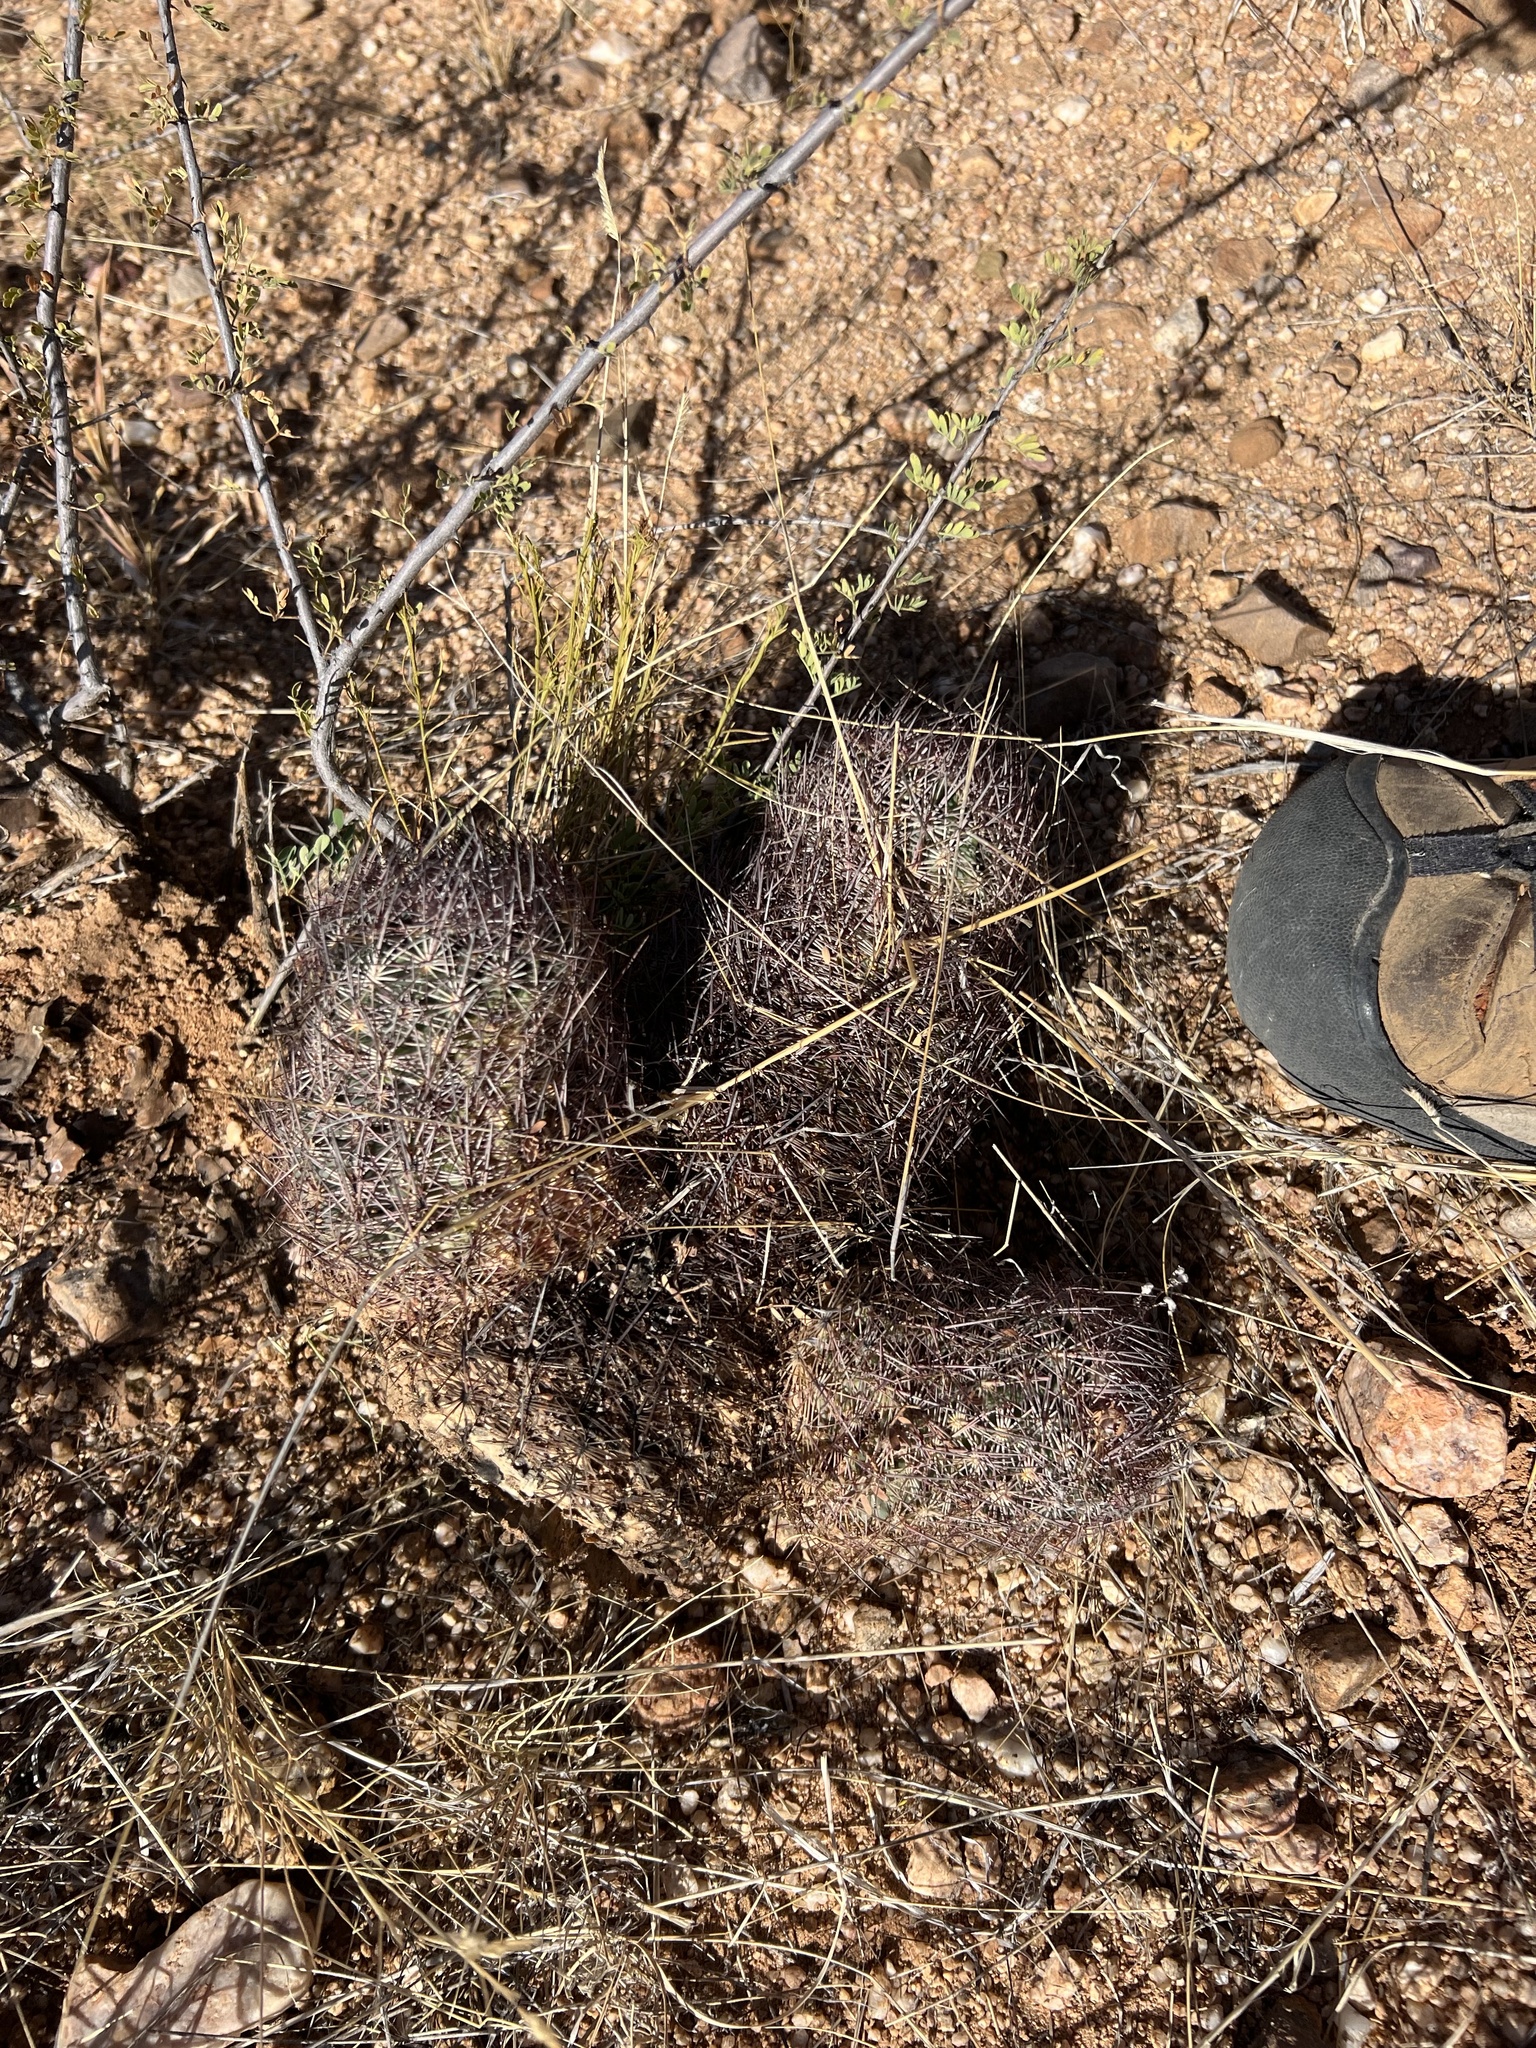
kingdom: Plantae
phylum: Tracheophyta
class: Magnoliopsida
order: Caryophyllales
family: Cactaceae
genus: Sclerocactus
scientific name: Sclerocactus johnsonii
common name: Eight-spine fishhook cactus
